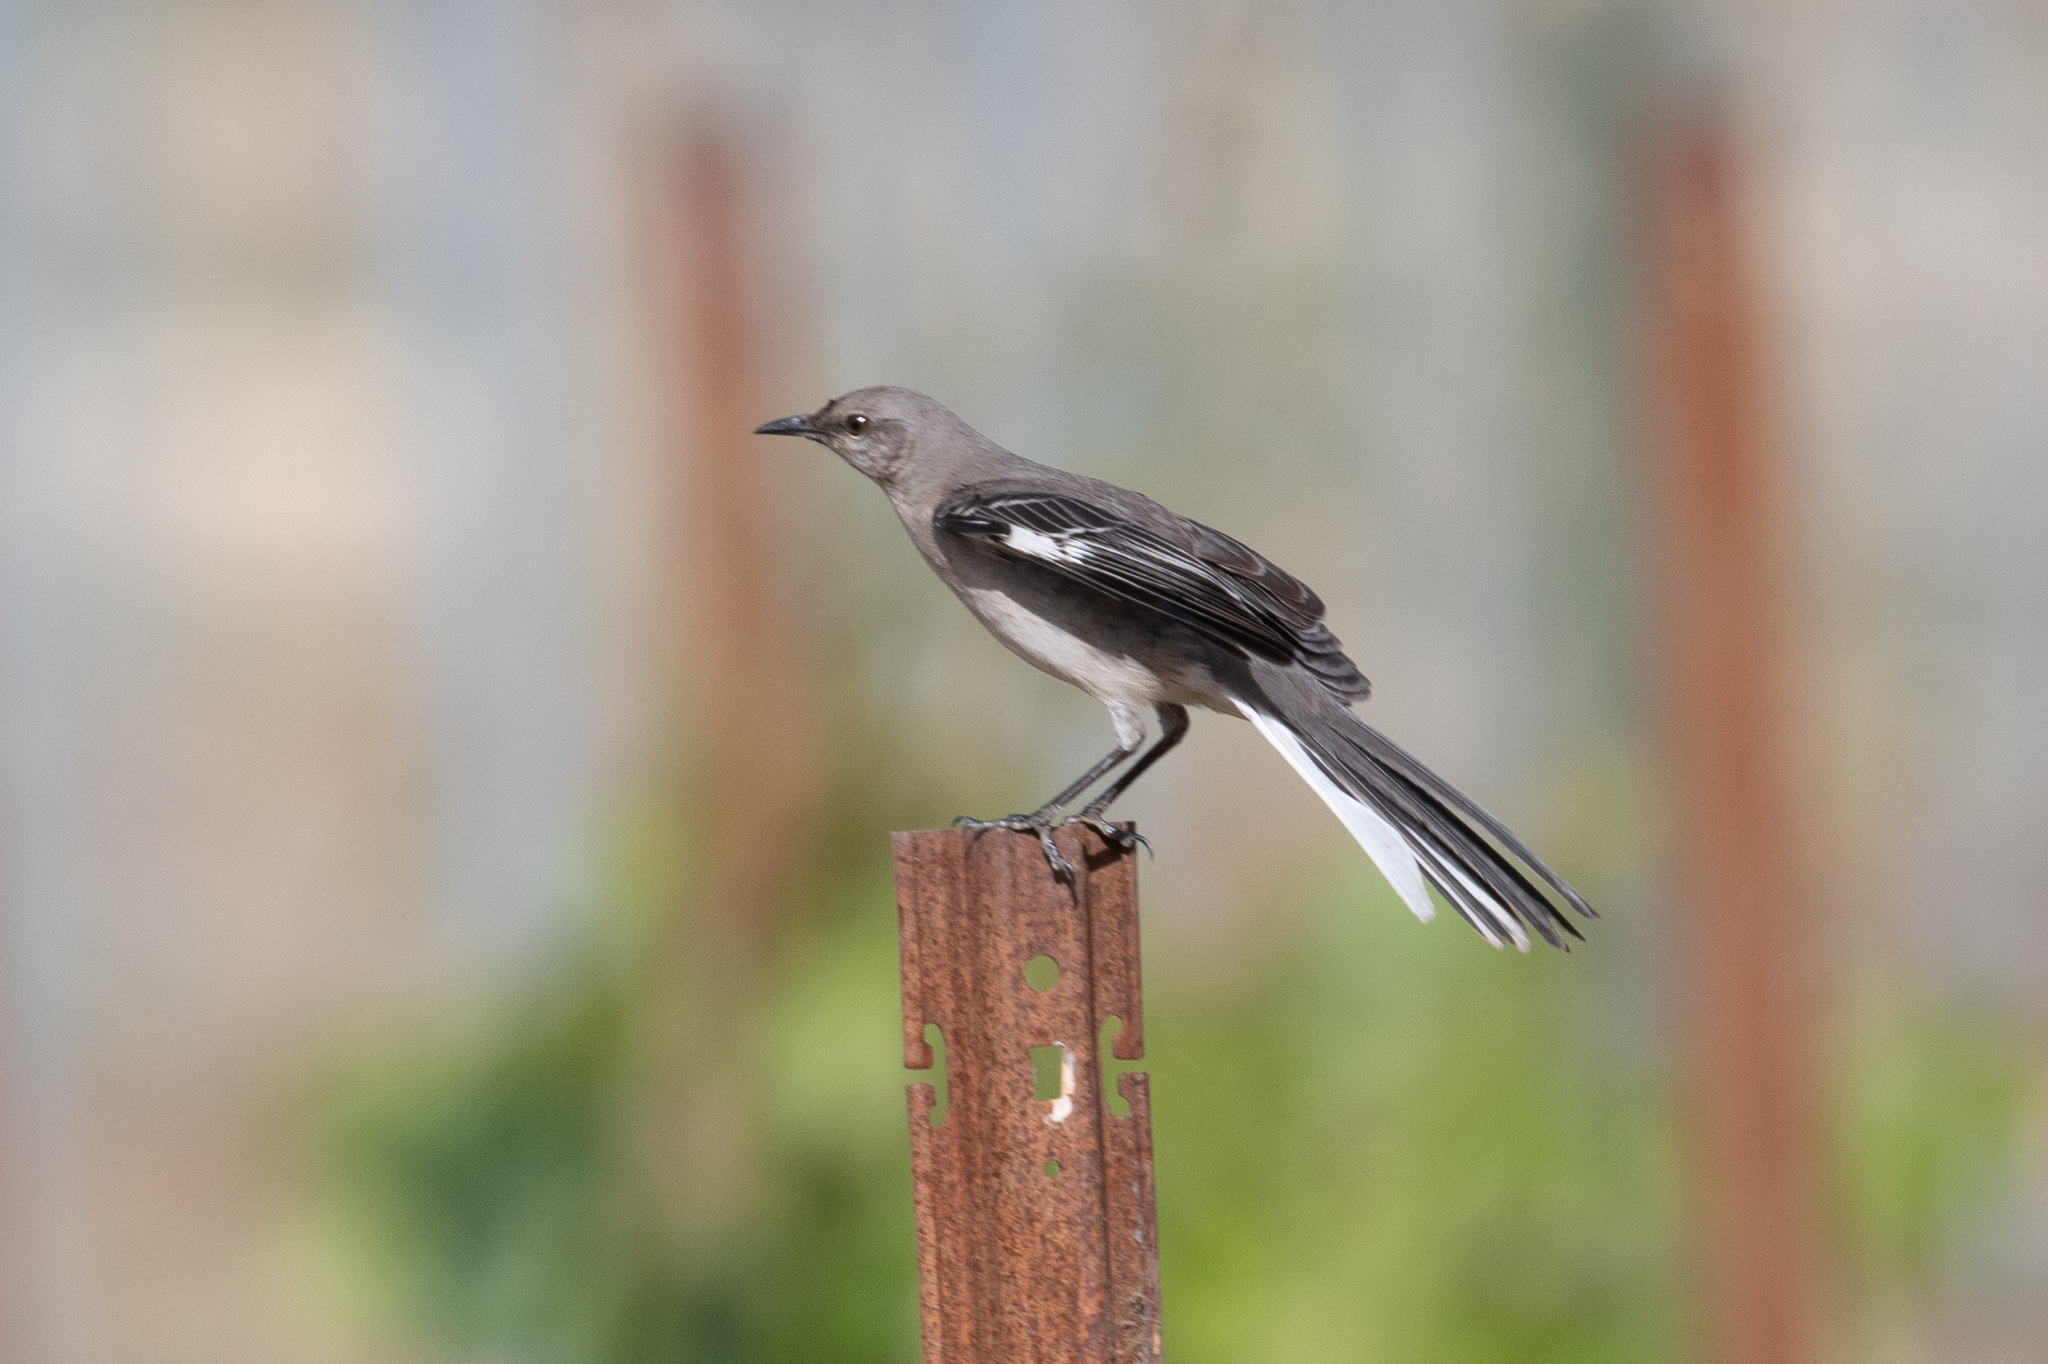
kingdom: Animalia
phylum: Chordata
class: Aves
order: Passeriformes
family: Mimidae
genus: Mimus
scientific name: Mimus polyglottos
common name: Northern mockingbird
